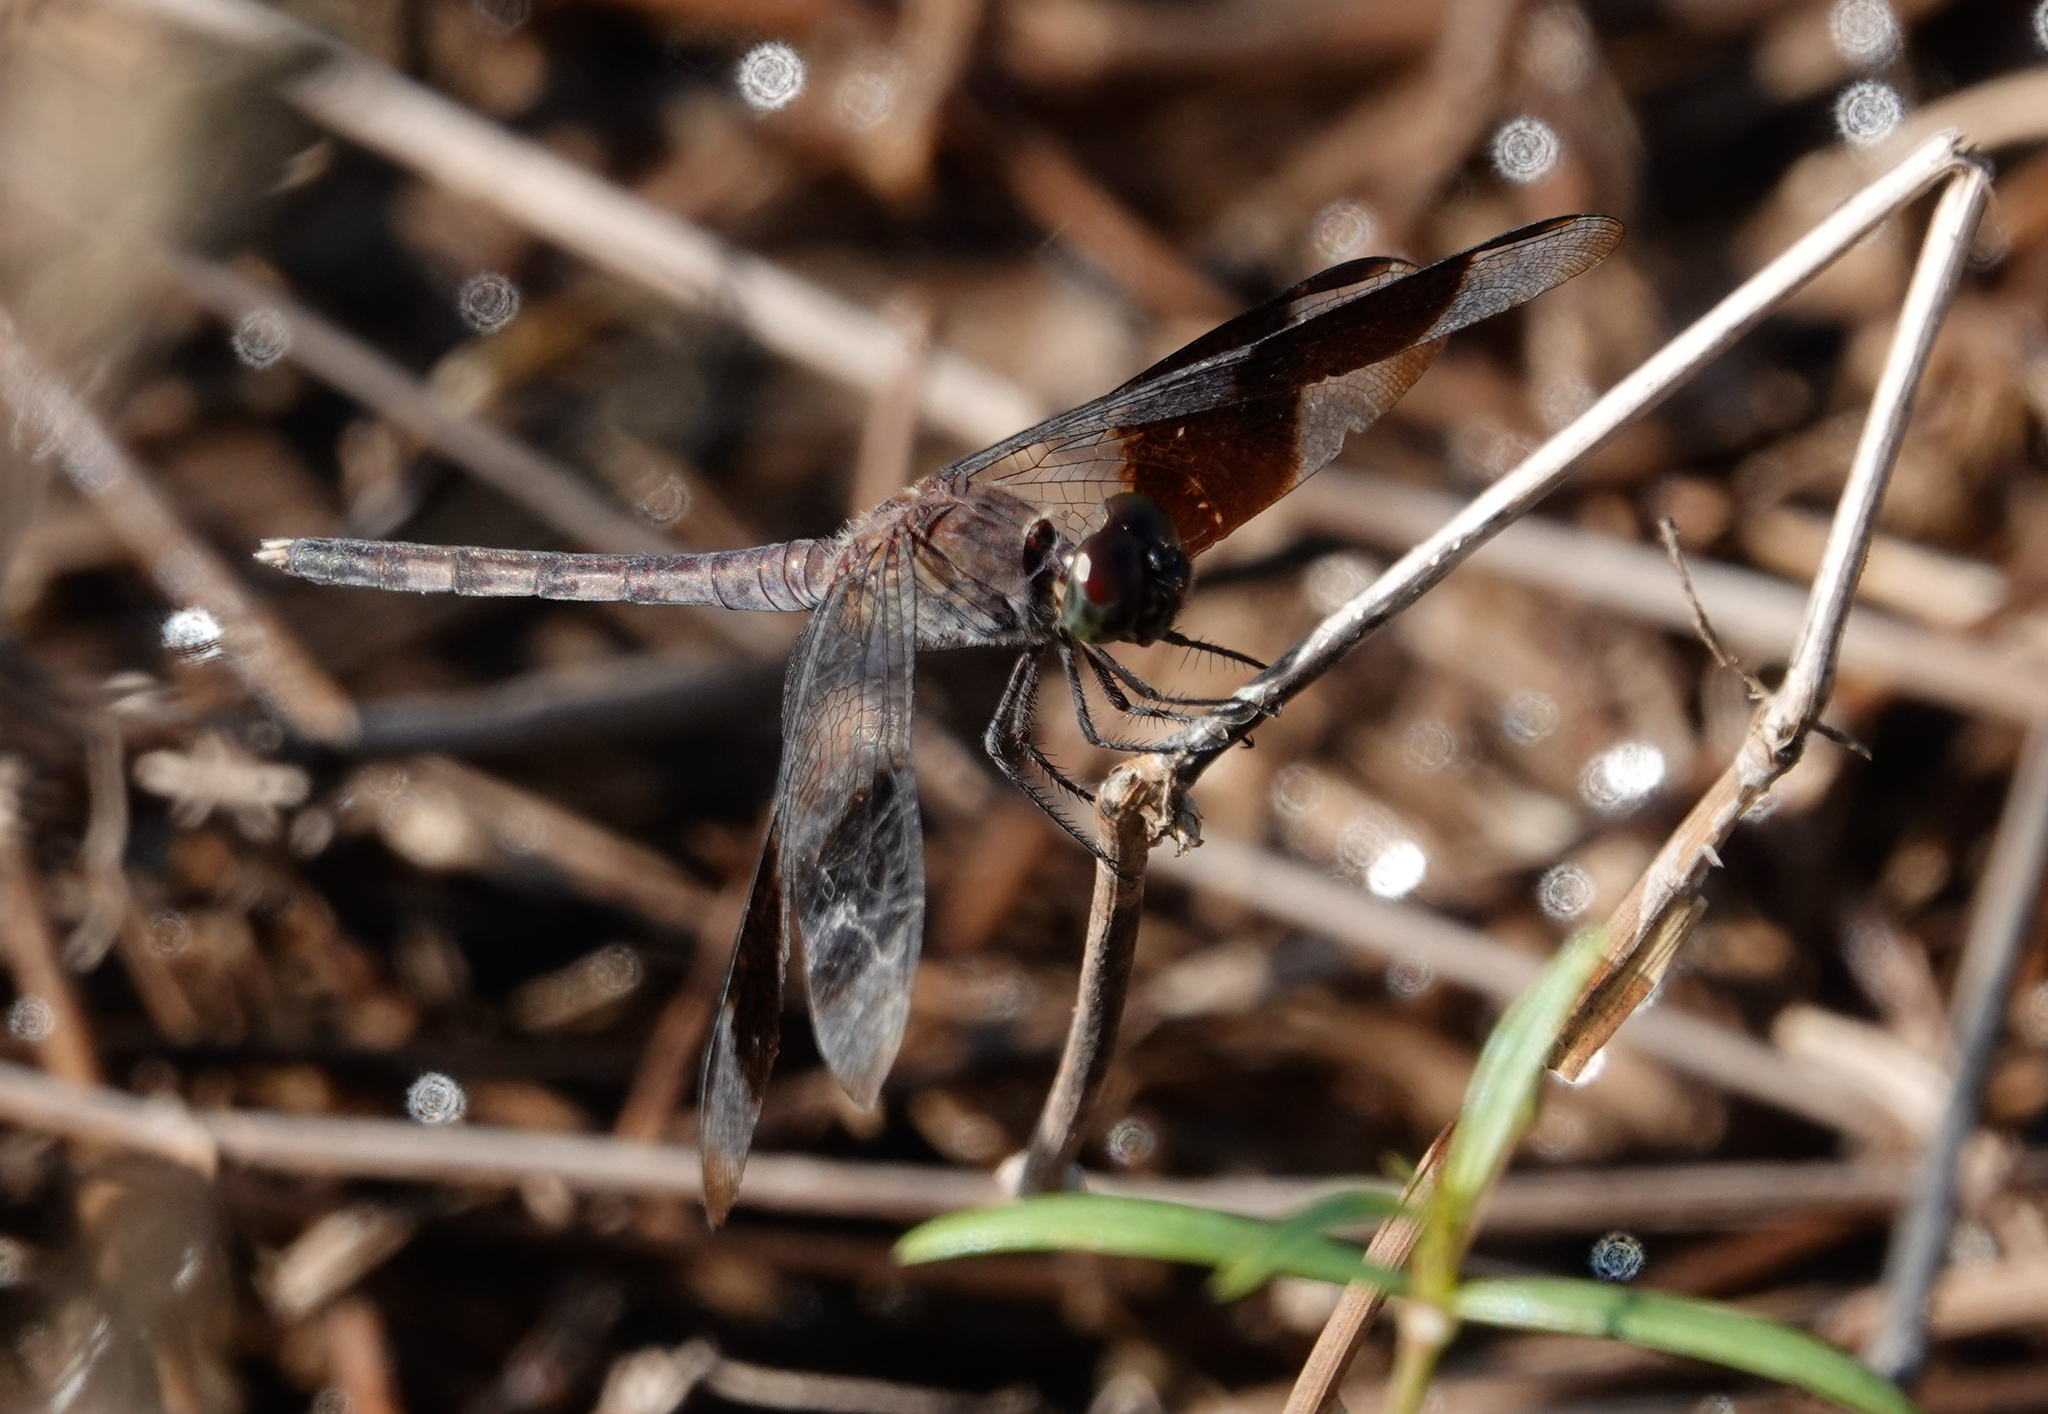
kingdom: Animalia
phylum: Arthropoda
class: Insecta
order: Odonata
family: Libellulidae
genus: Erythrodiplax
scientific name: Erythrodiplax umbrata
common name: Band-winged dragonlet
